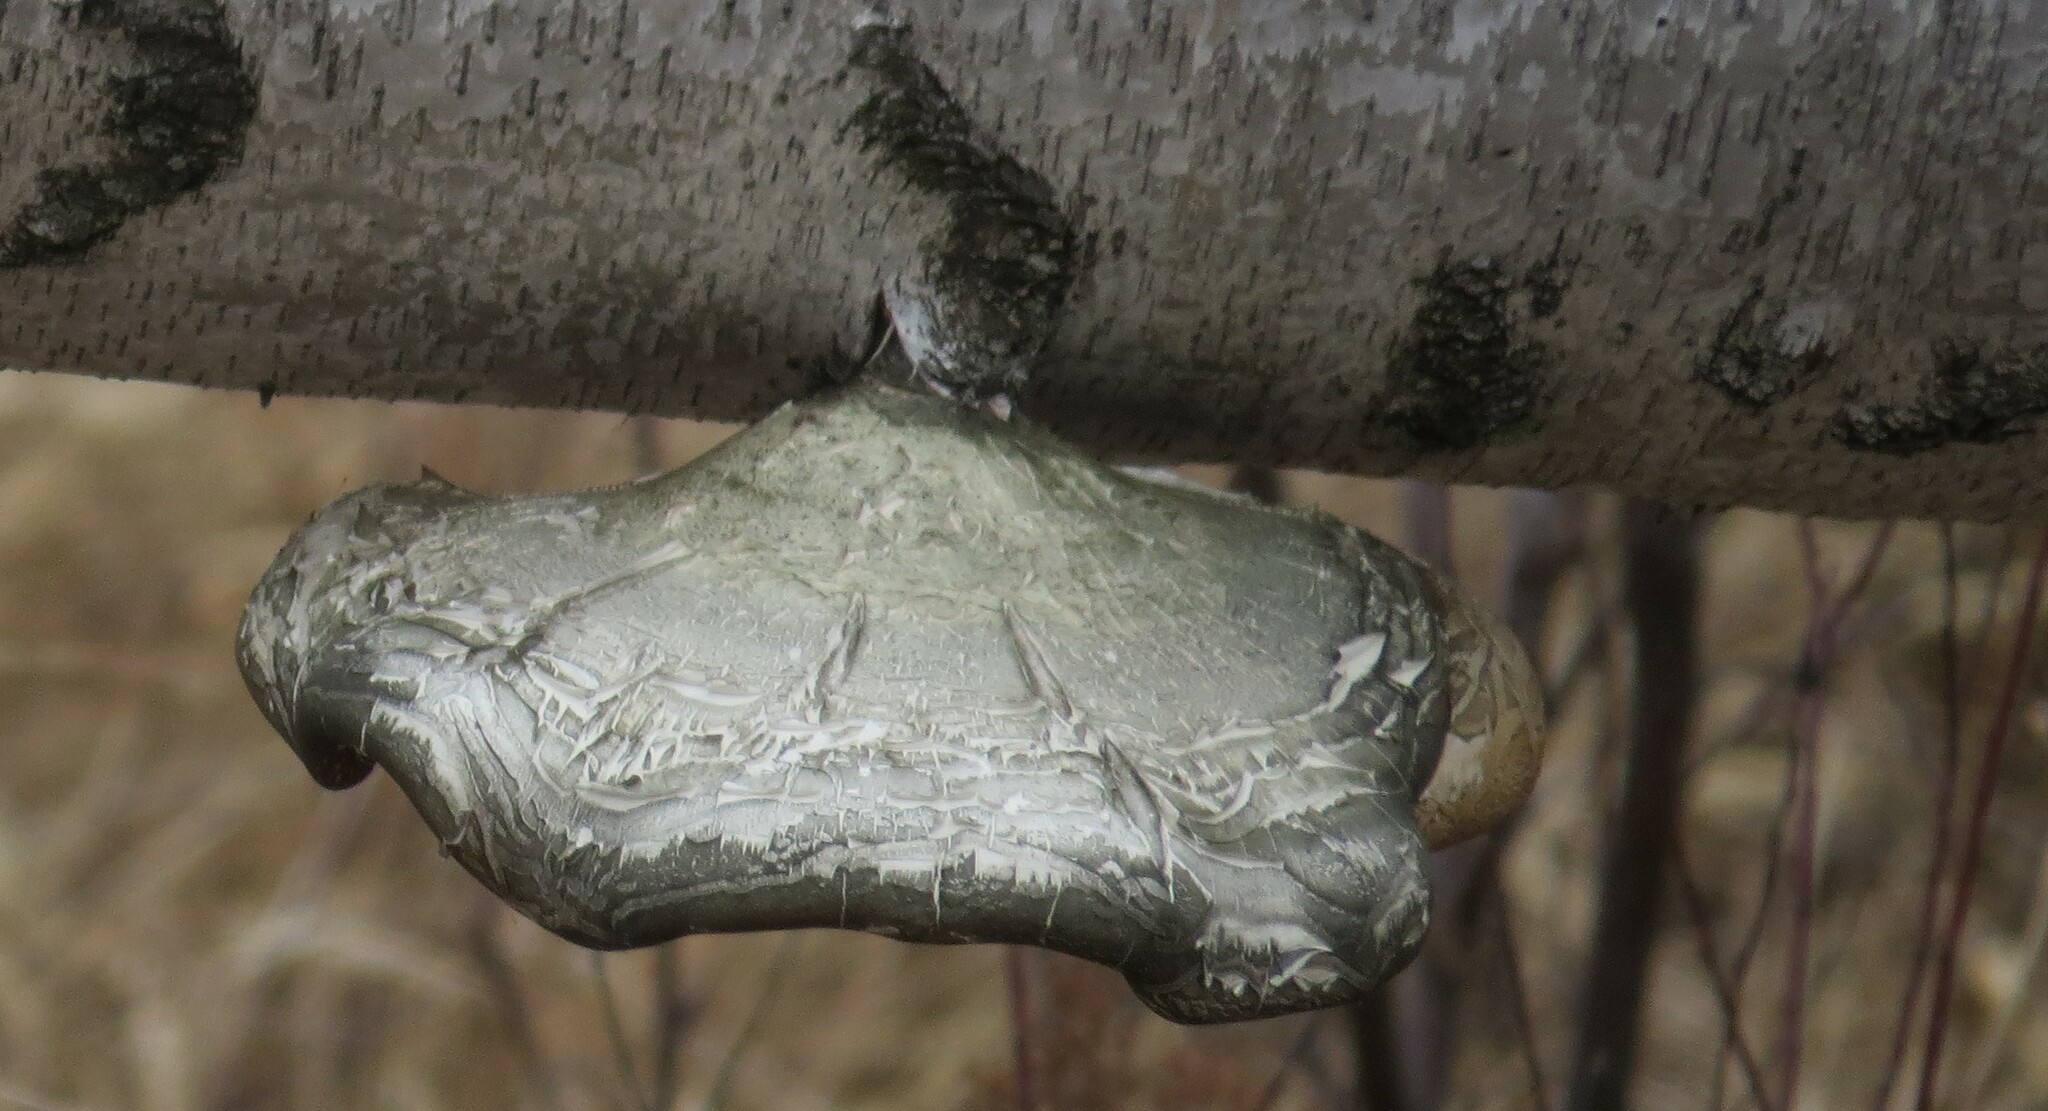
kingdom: Fungi
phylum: Basidiomycota
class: Agaricomycetes
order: Polyporales
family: Fomitopsidaceae
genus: Fomitopsis
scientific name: Fomitopsis betulina
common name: Birch polypore
